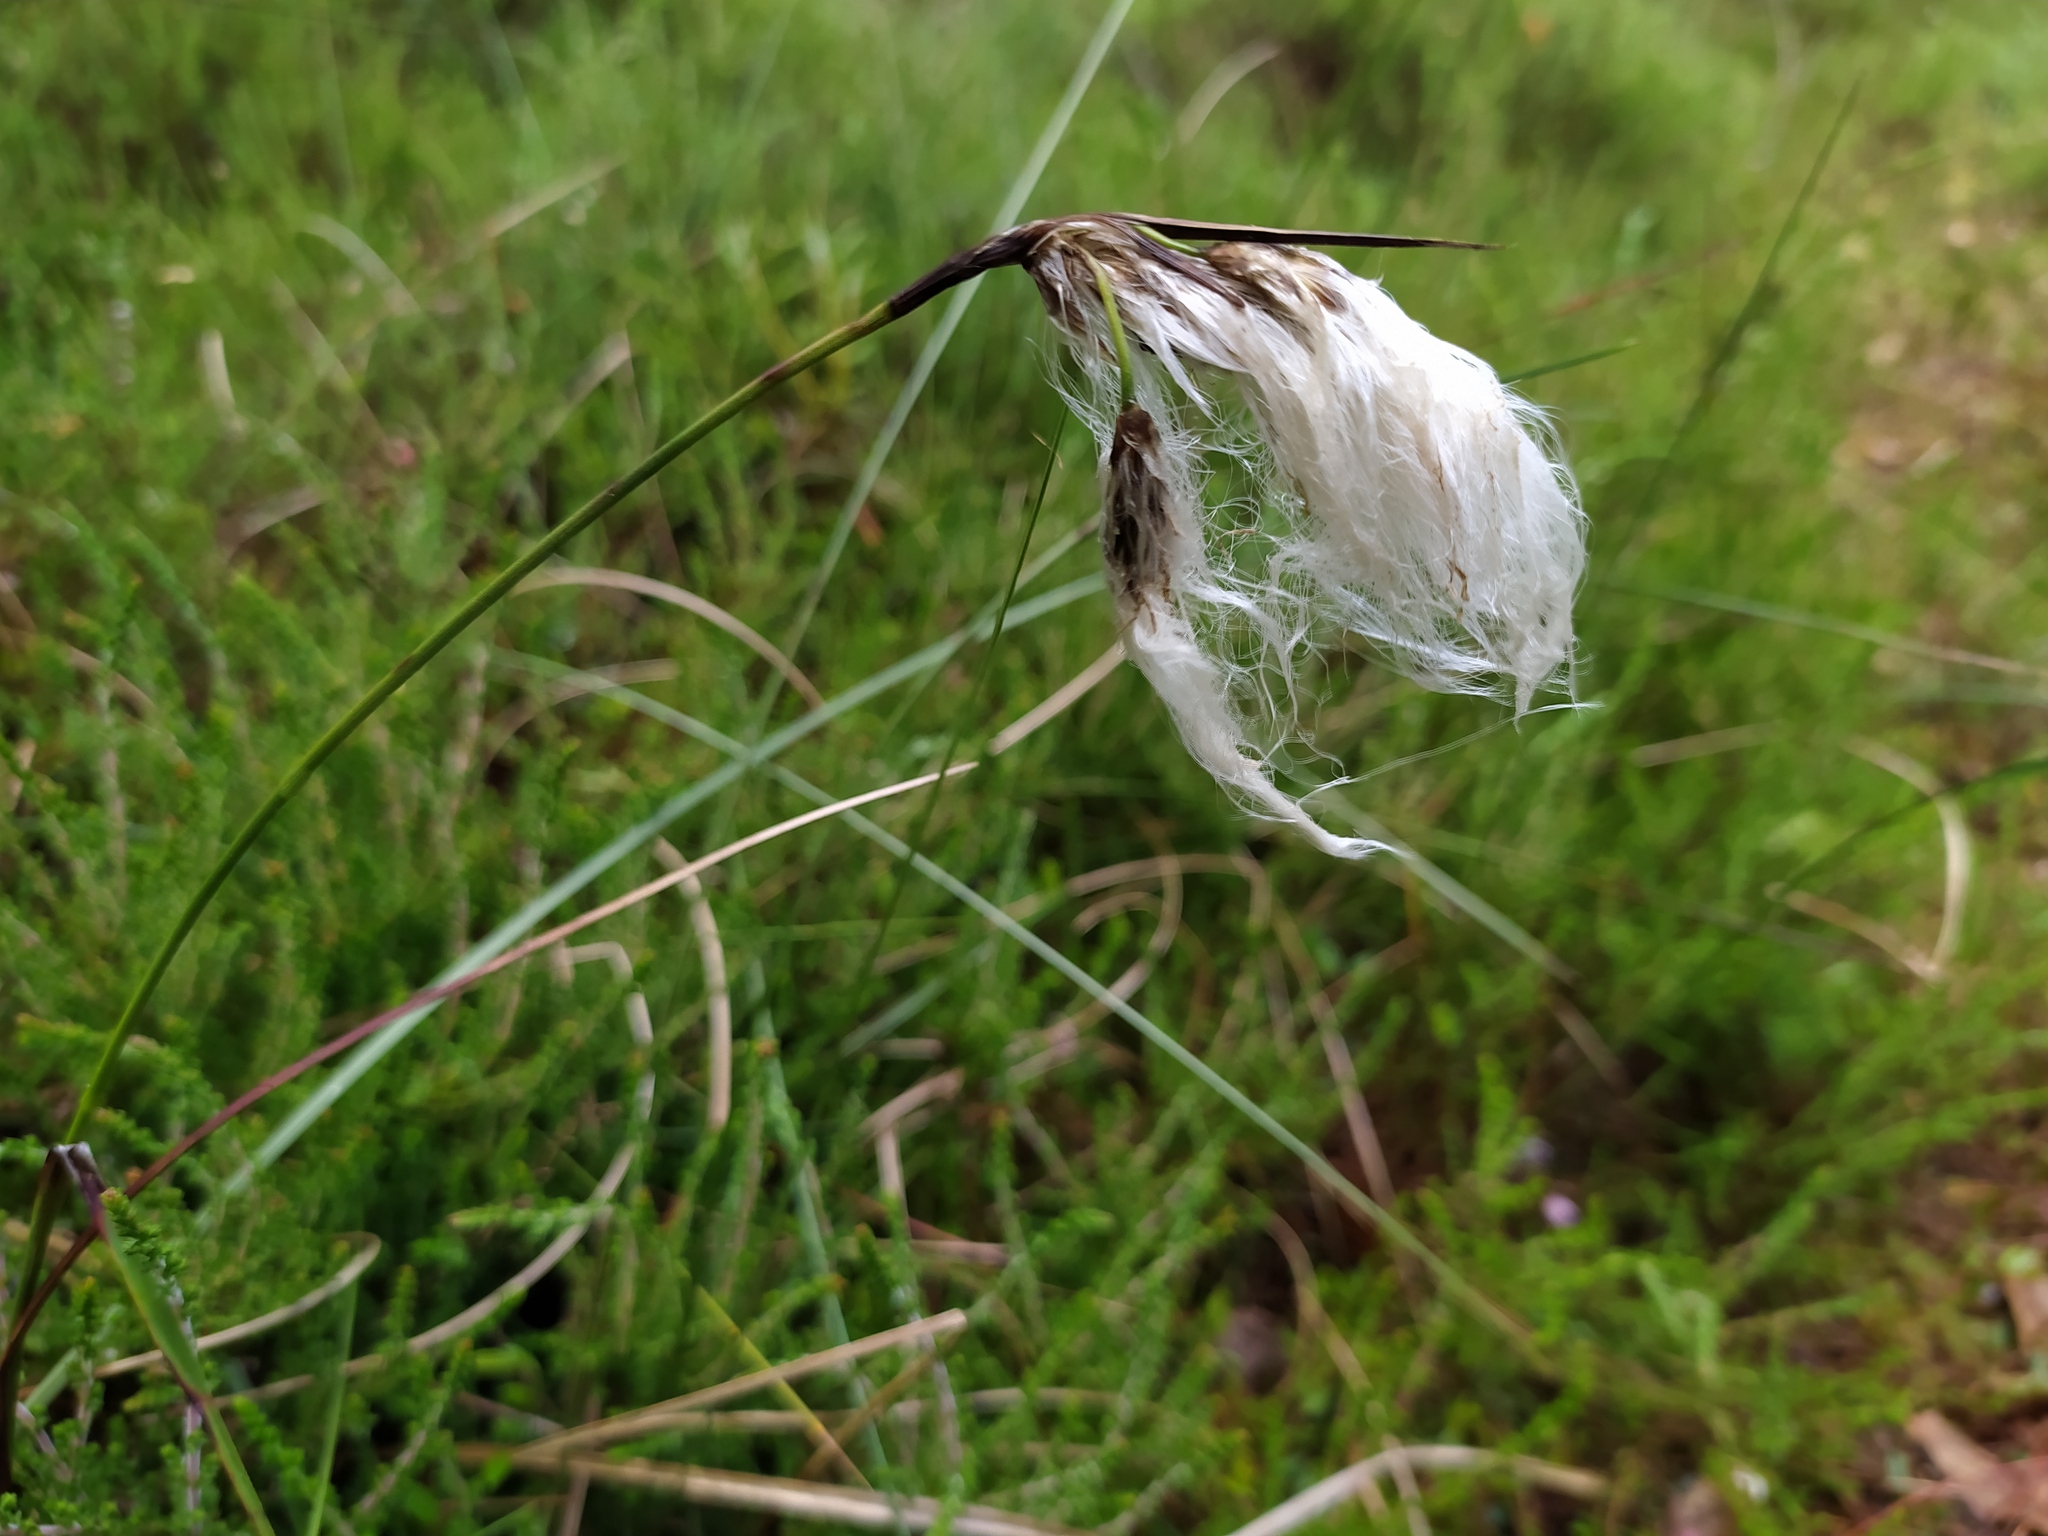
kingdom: Plantae
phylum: Tracheophyta
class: Liliopsida
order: Poales
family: Cyperaceae
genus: Eriophorum
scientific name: Eriophorum angustifolium
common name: Common cottongrass
